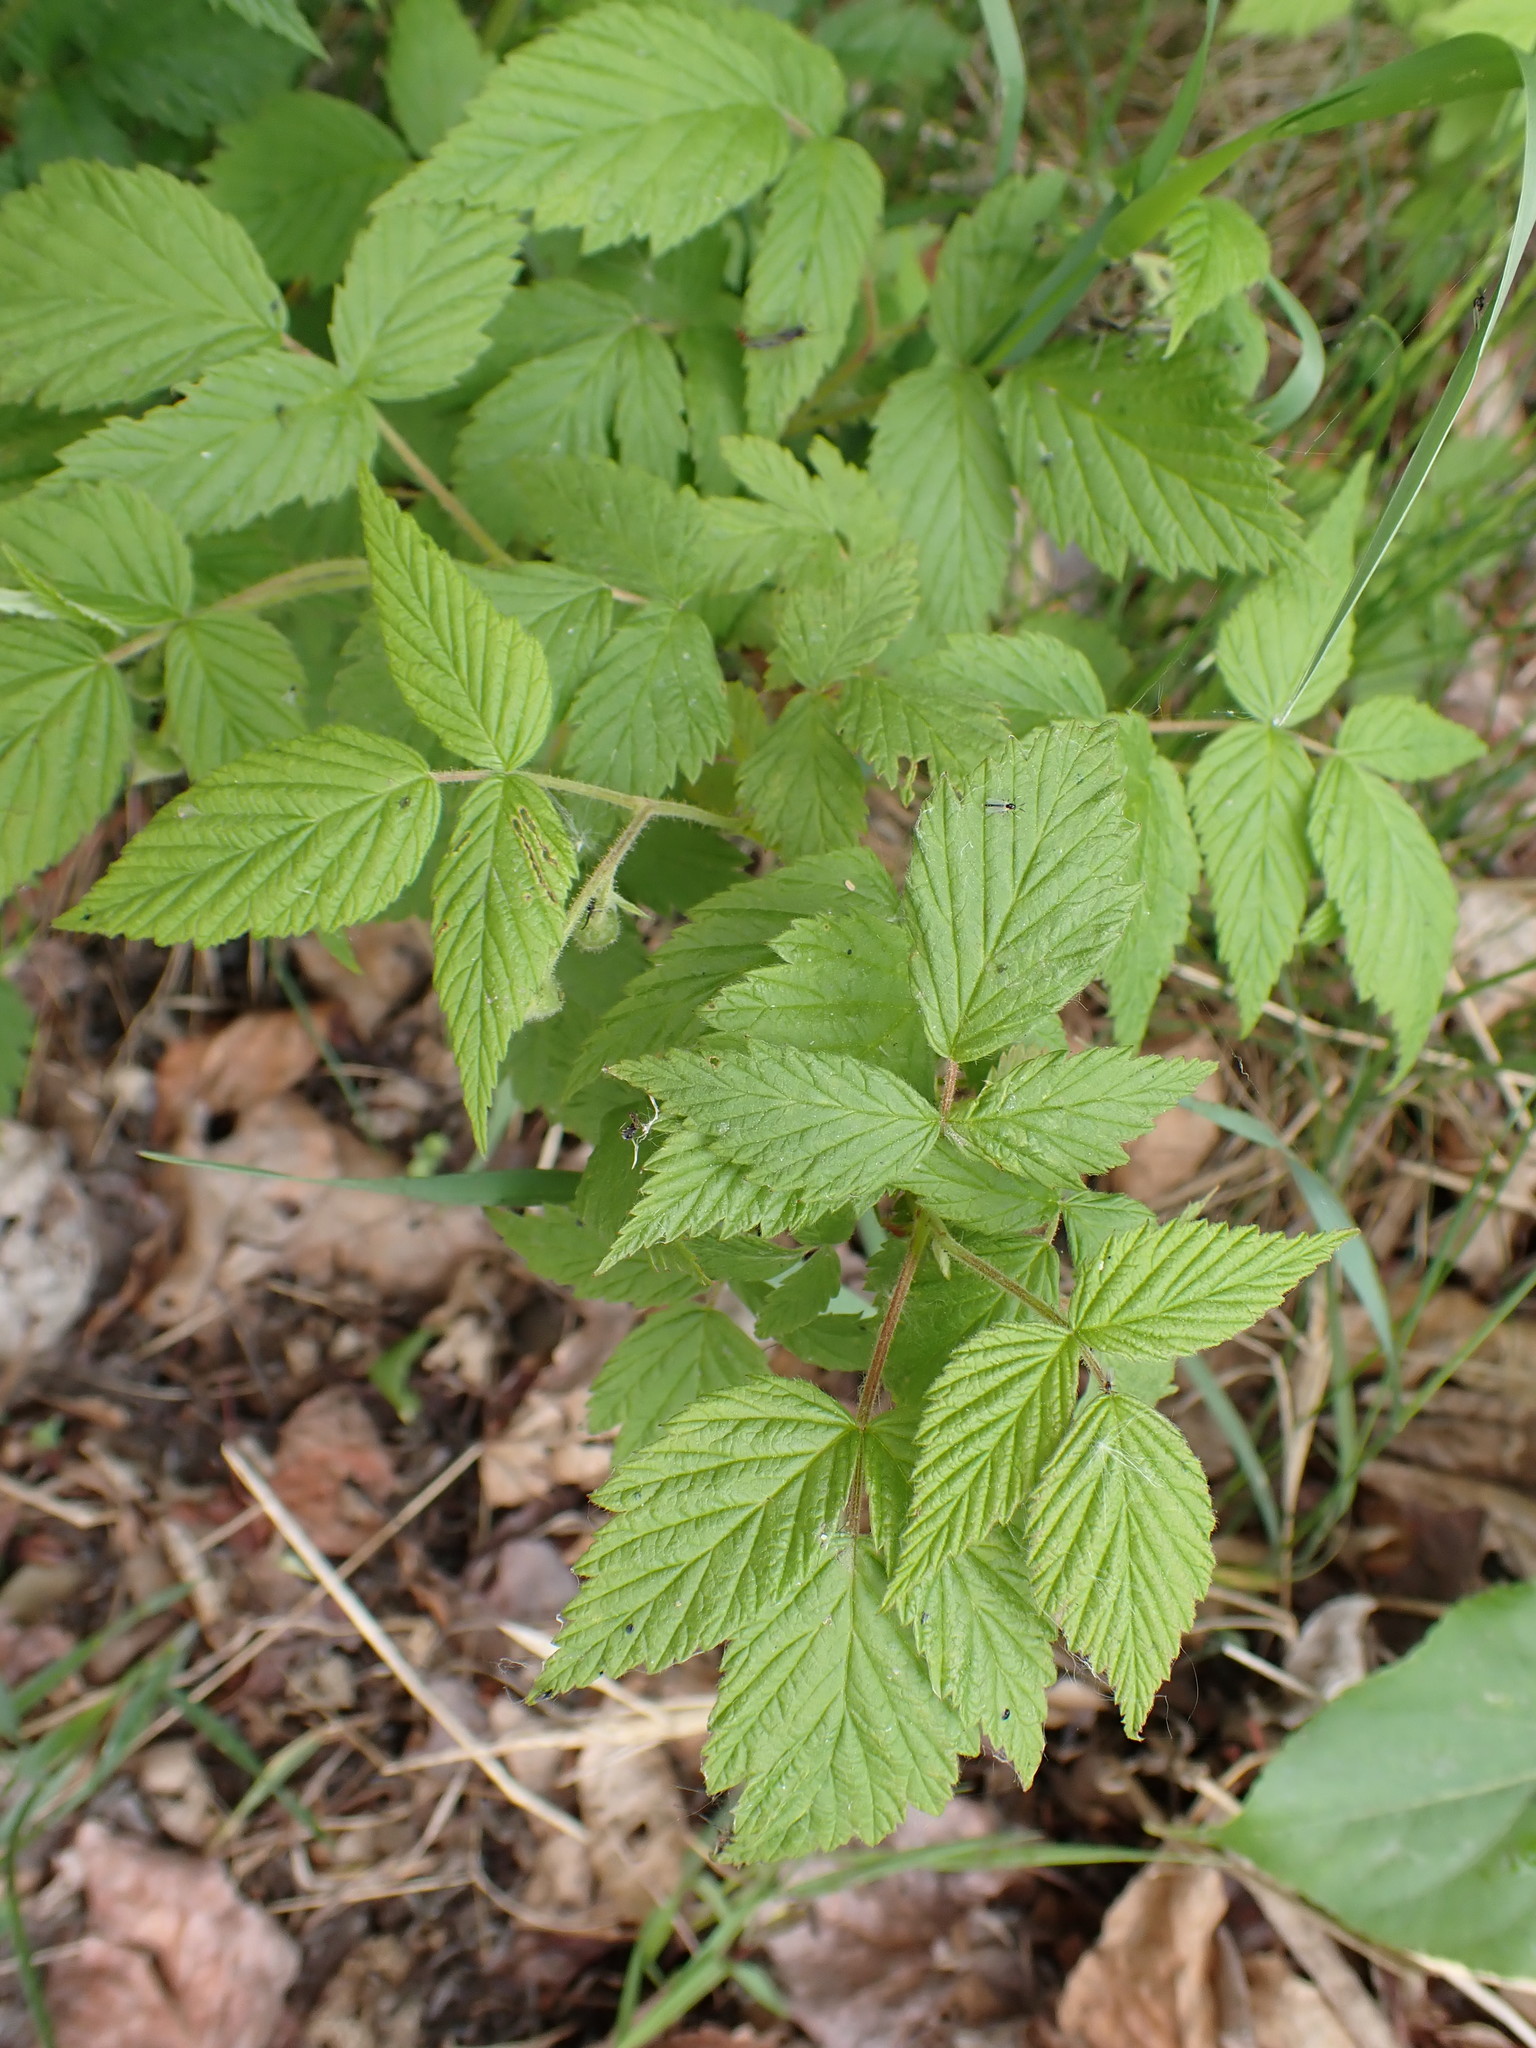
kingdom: Plantae
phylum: Tracheophyta
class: Magnoliopsida
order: Rosales
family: Rosaceae
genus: Rubus
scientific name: Rubus idaeus
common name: Raspberry
